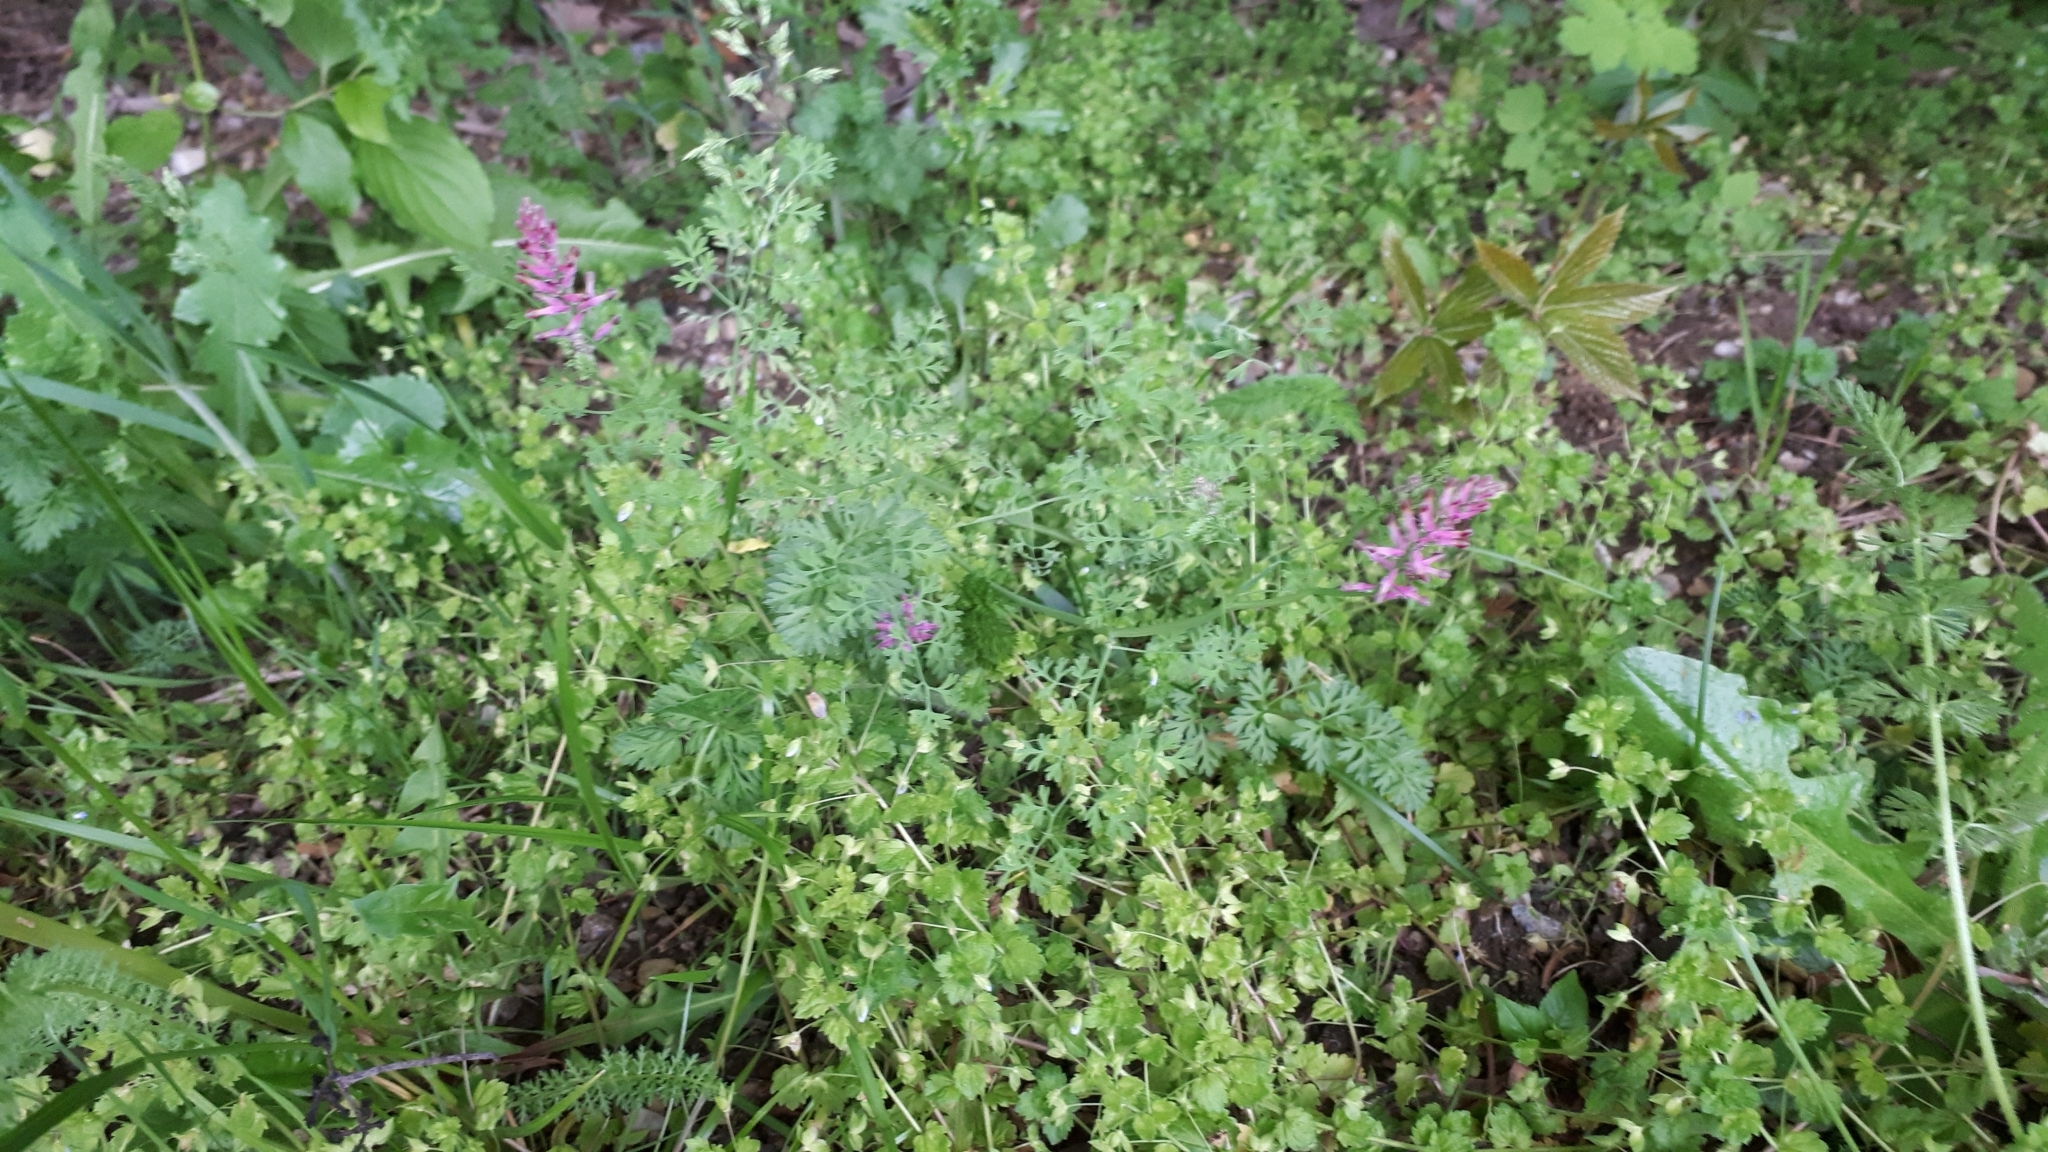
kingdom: Plantae
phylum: Tracheophyta
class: Magnoliopsida
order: Ranunculales
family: Papaveraceae
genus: Fumaria
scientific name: Fumaria officinalis
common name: Common fumitory
